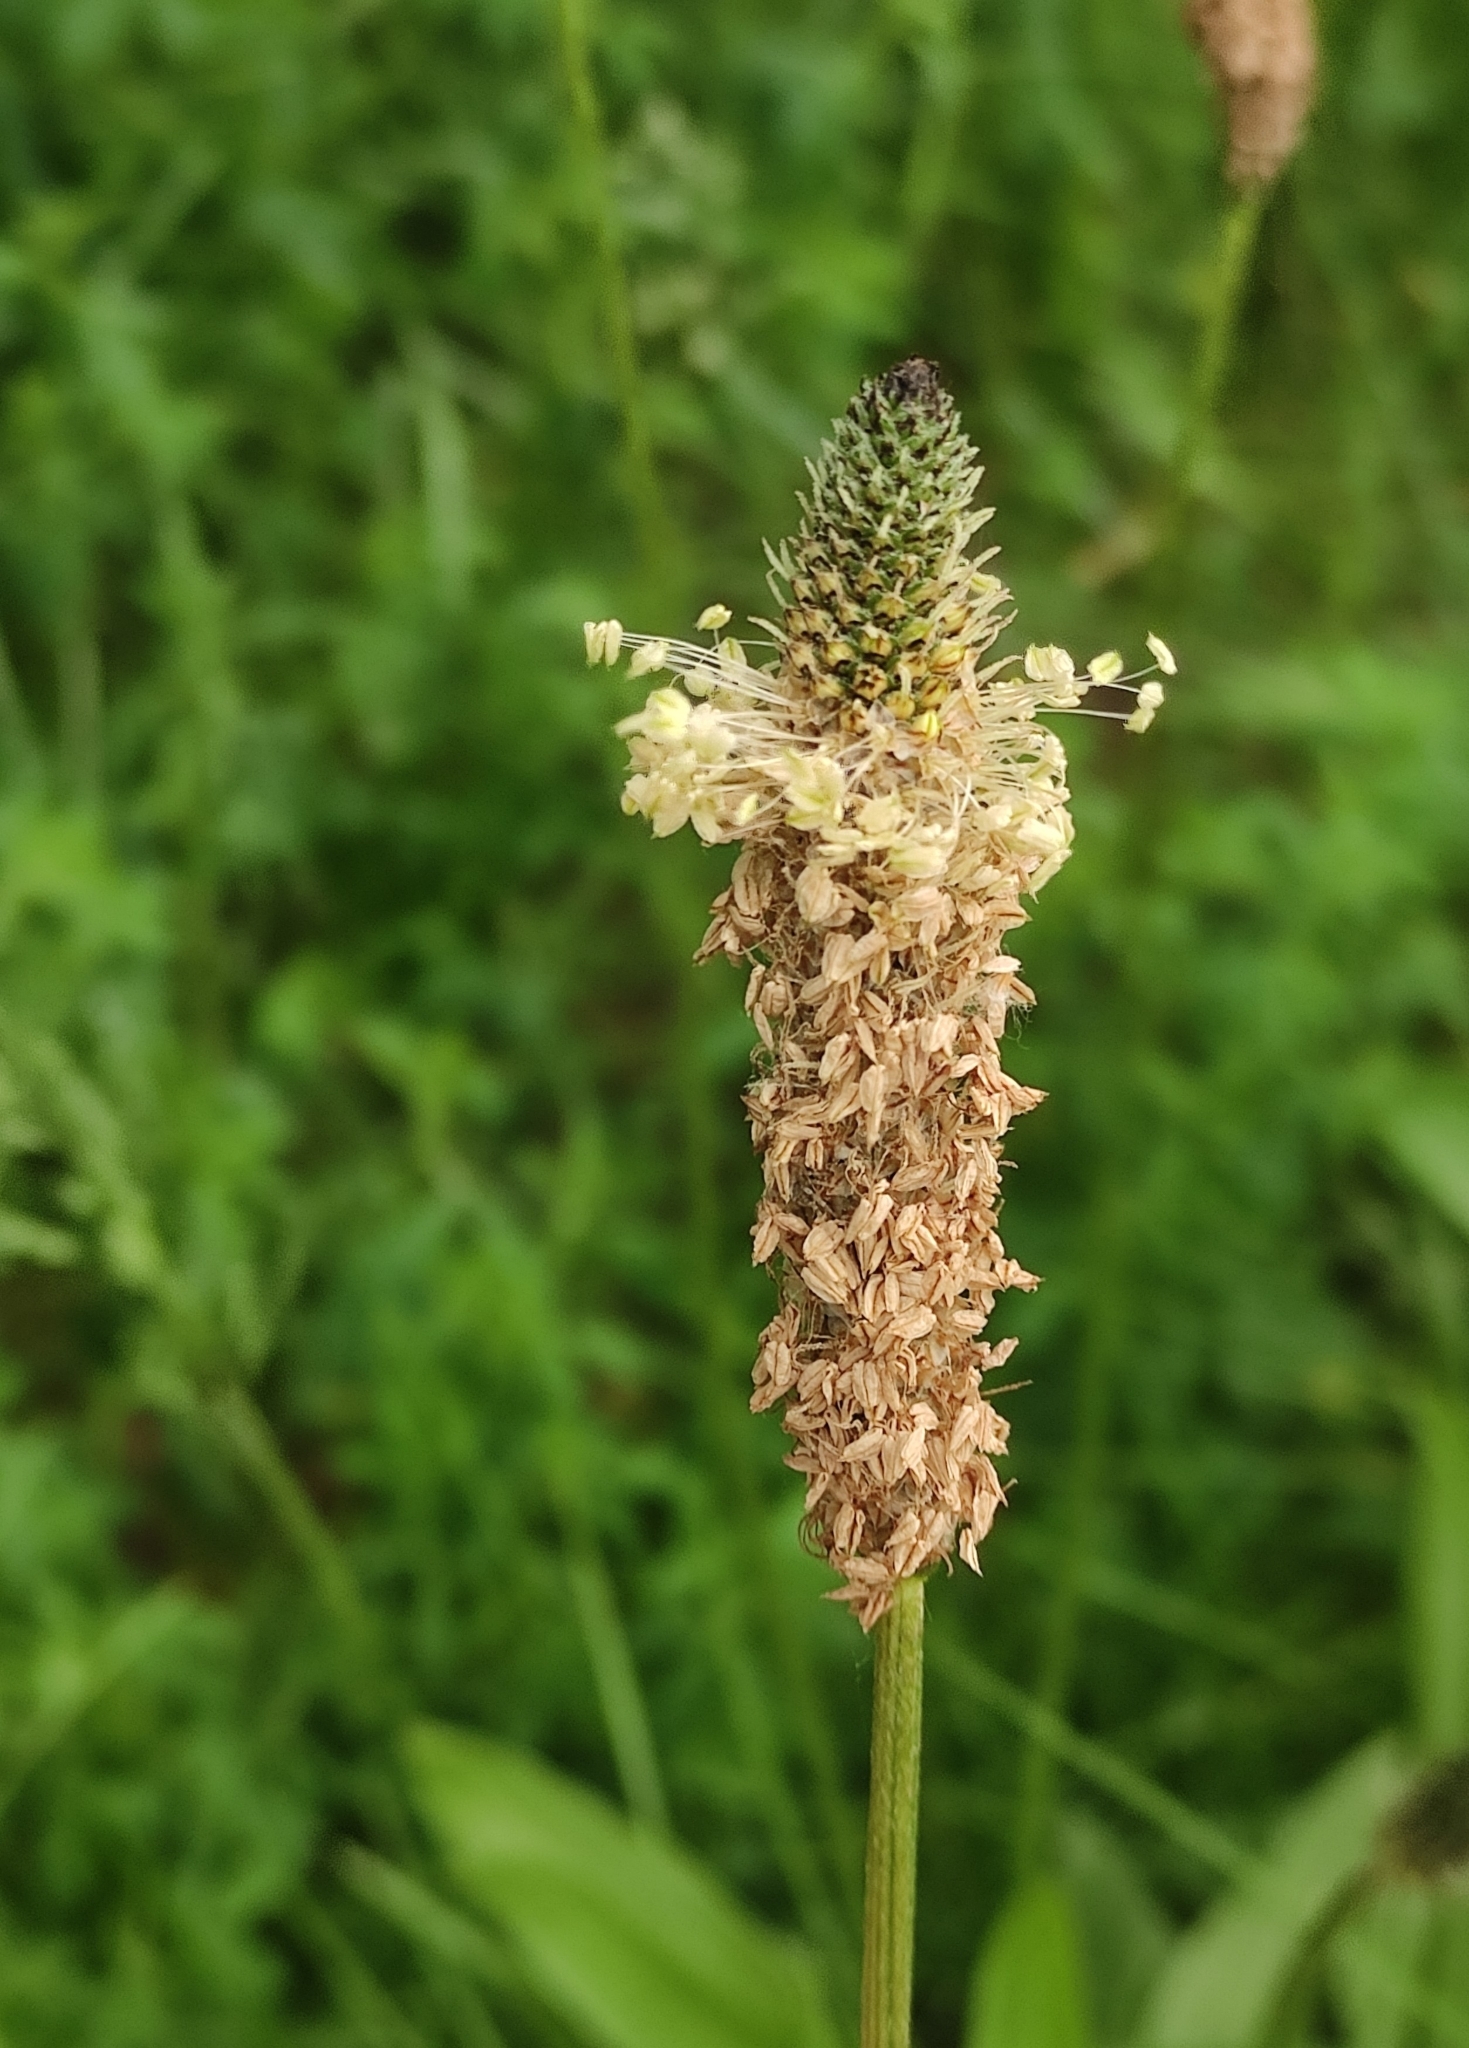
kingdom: Plantae
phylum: Tracheophyta
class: Magnoliopsida
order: Lamiales
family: Plantaginaceae
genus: Plantago
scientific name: Plantago lanceolata
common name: Ribwort plantain
